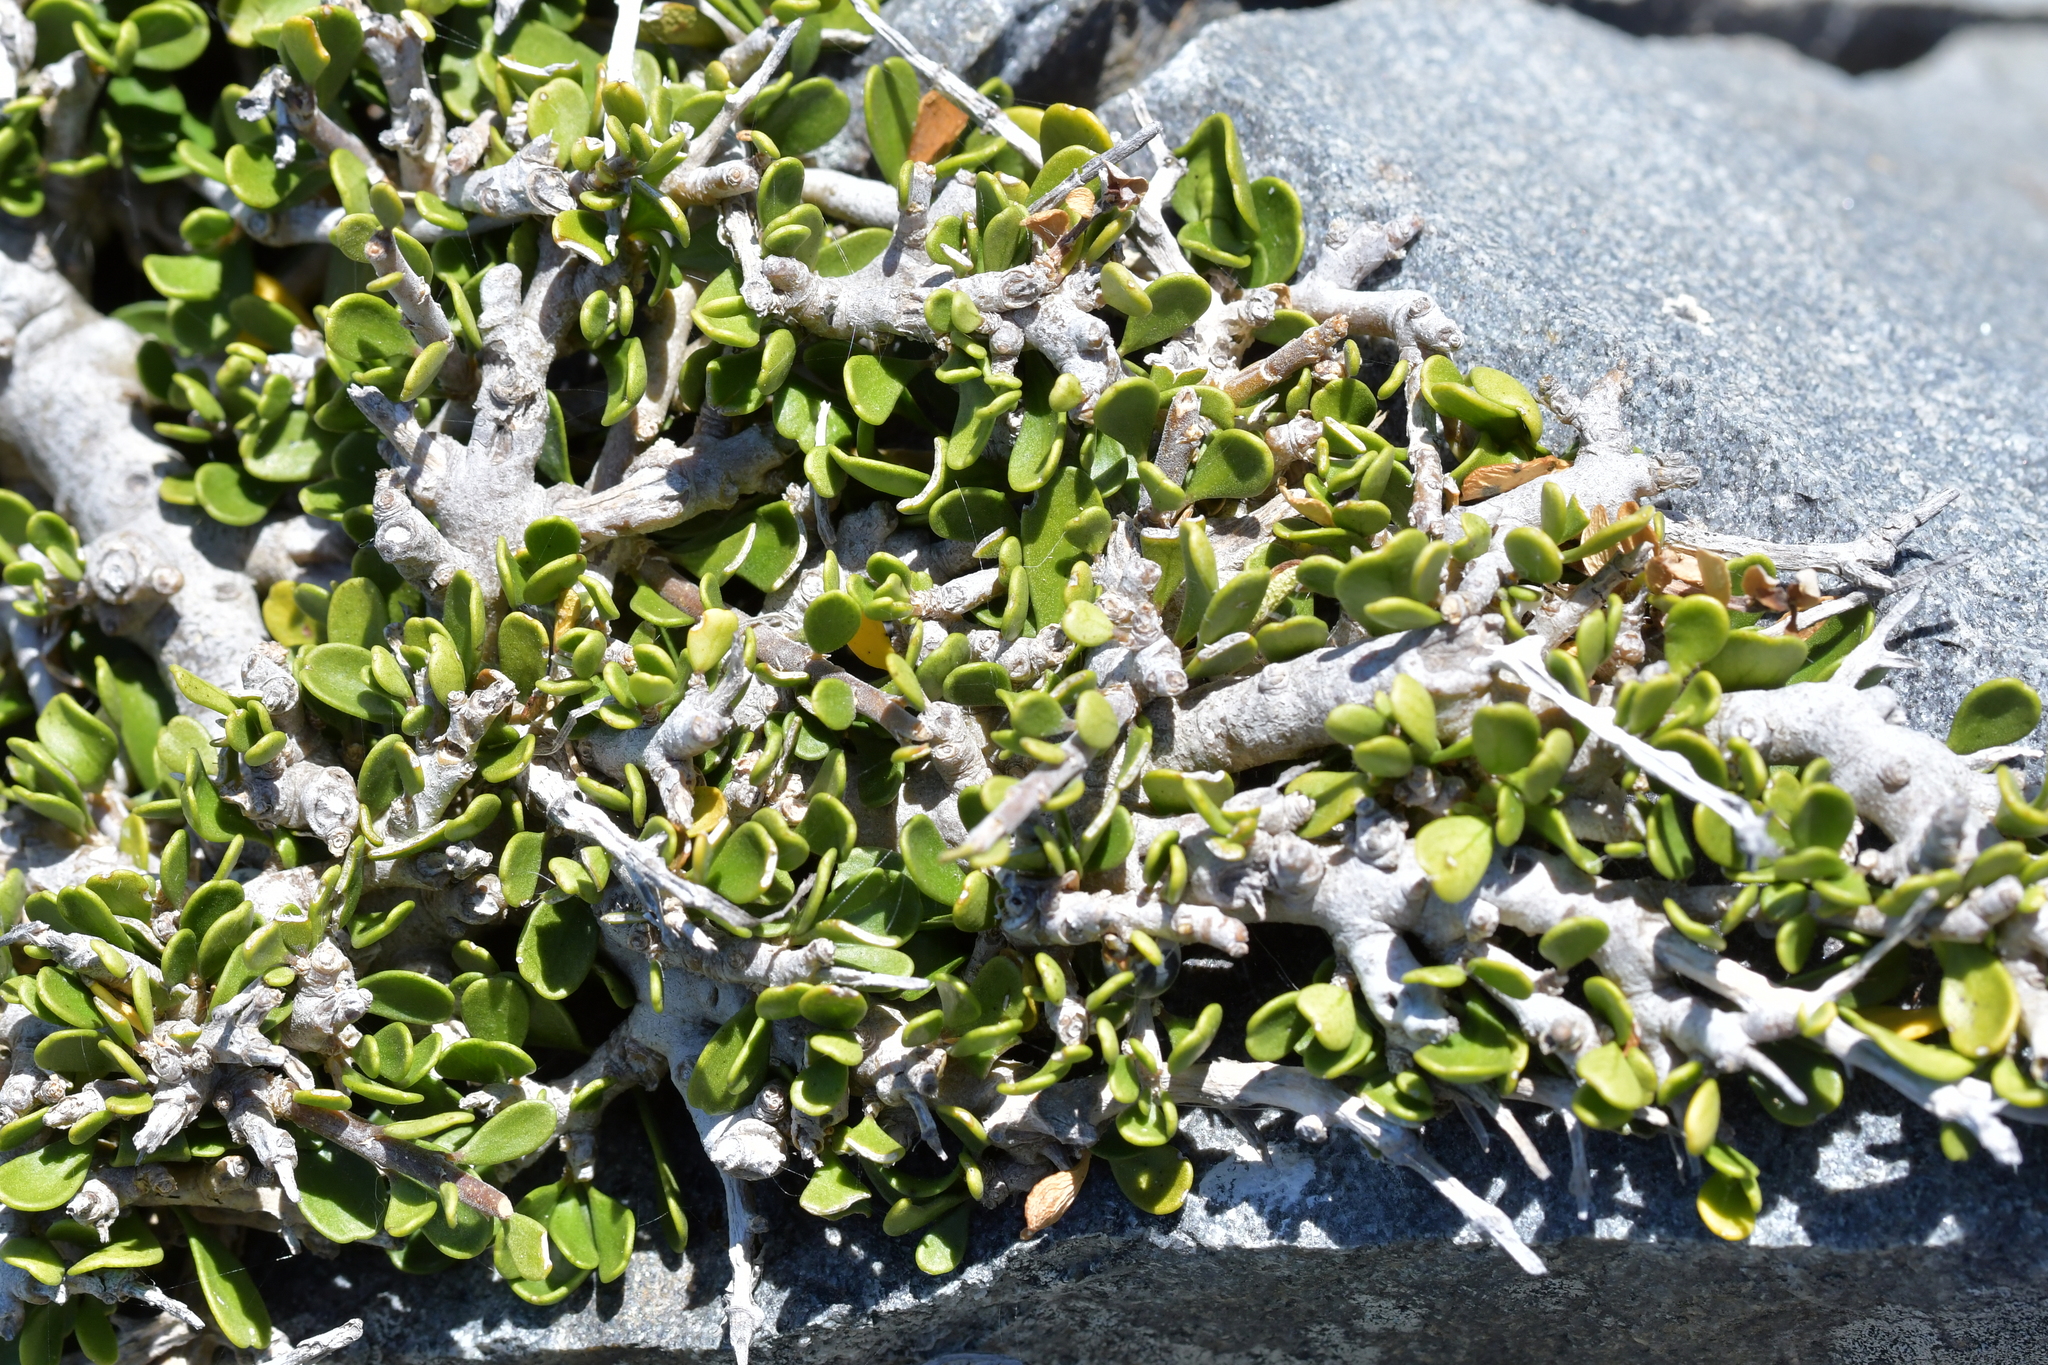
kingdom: Plantae
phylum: Tracheophyta
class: Magnoliopsida
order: Malpighiales
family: Violaceae
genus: Melicytus
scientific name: Melicytus crassifolius
